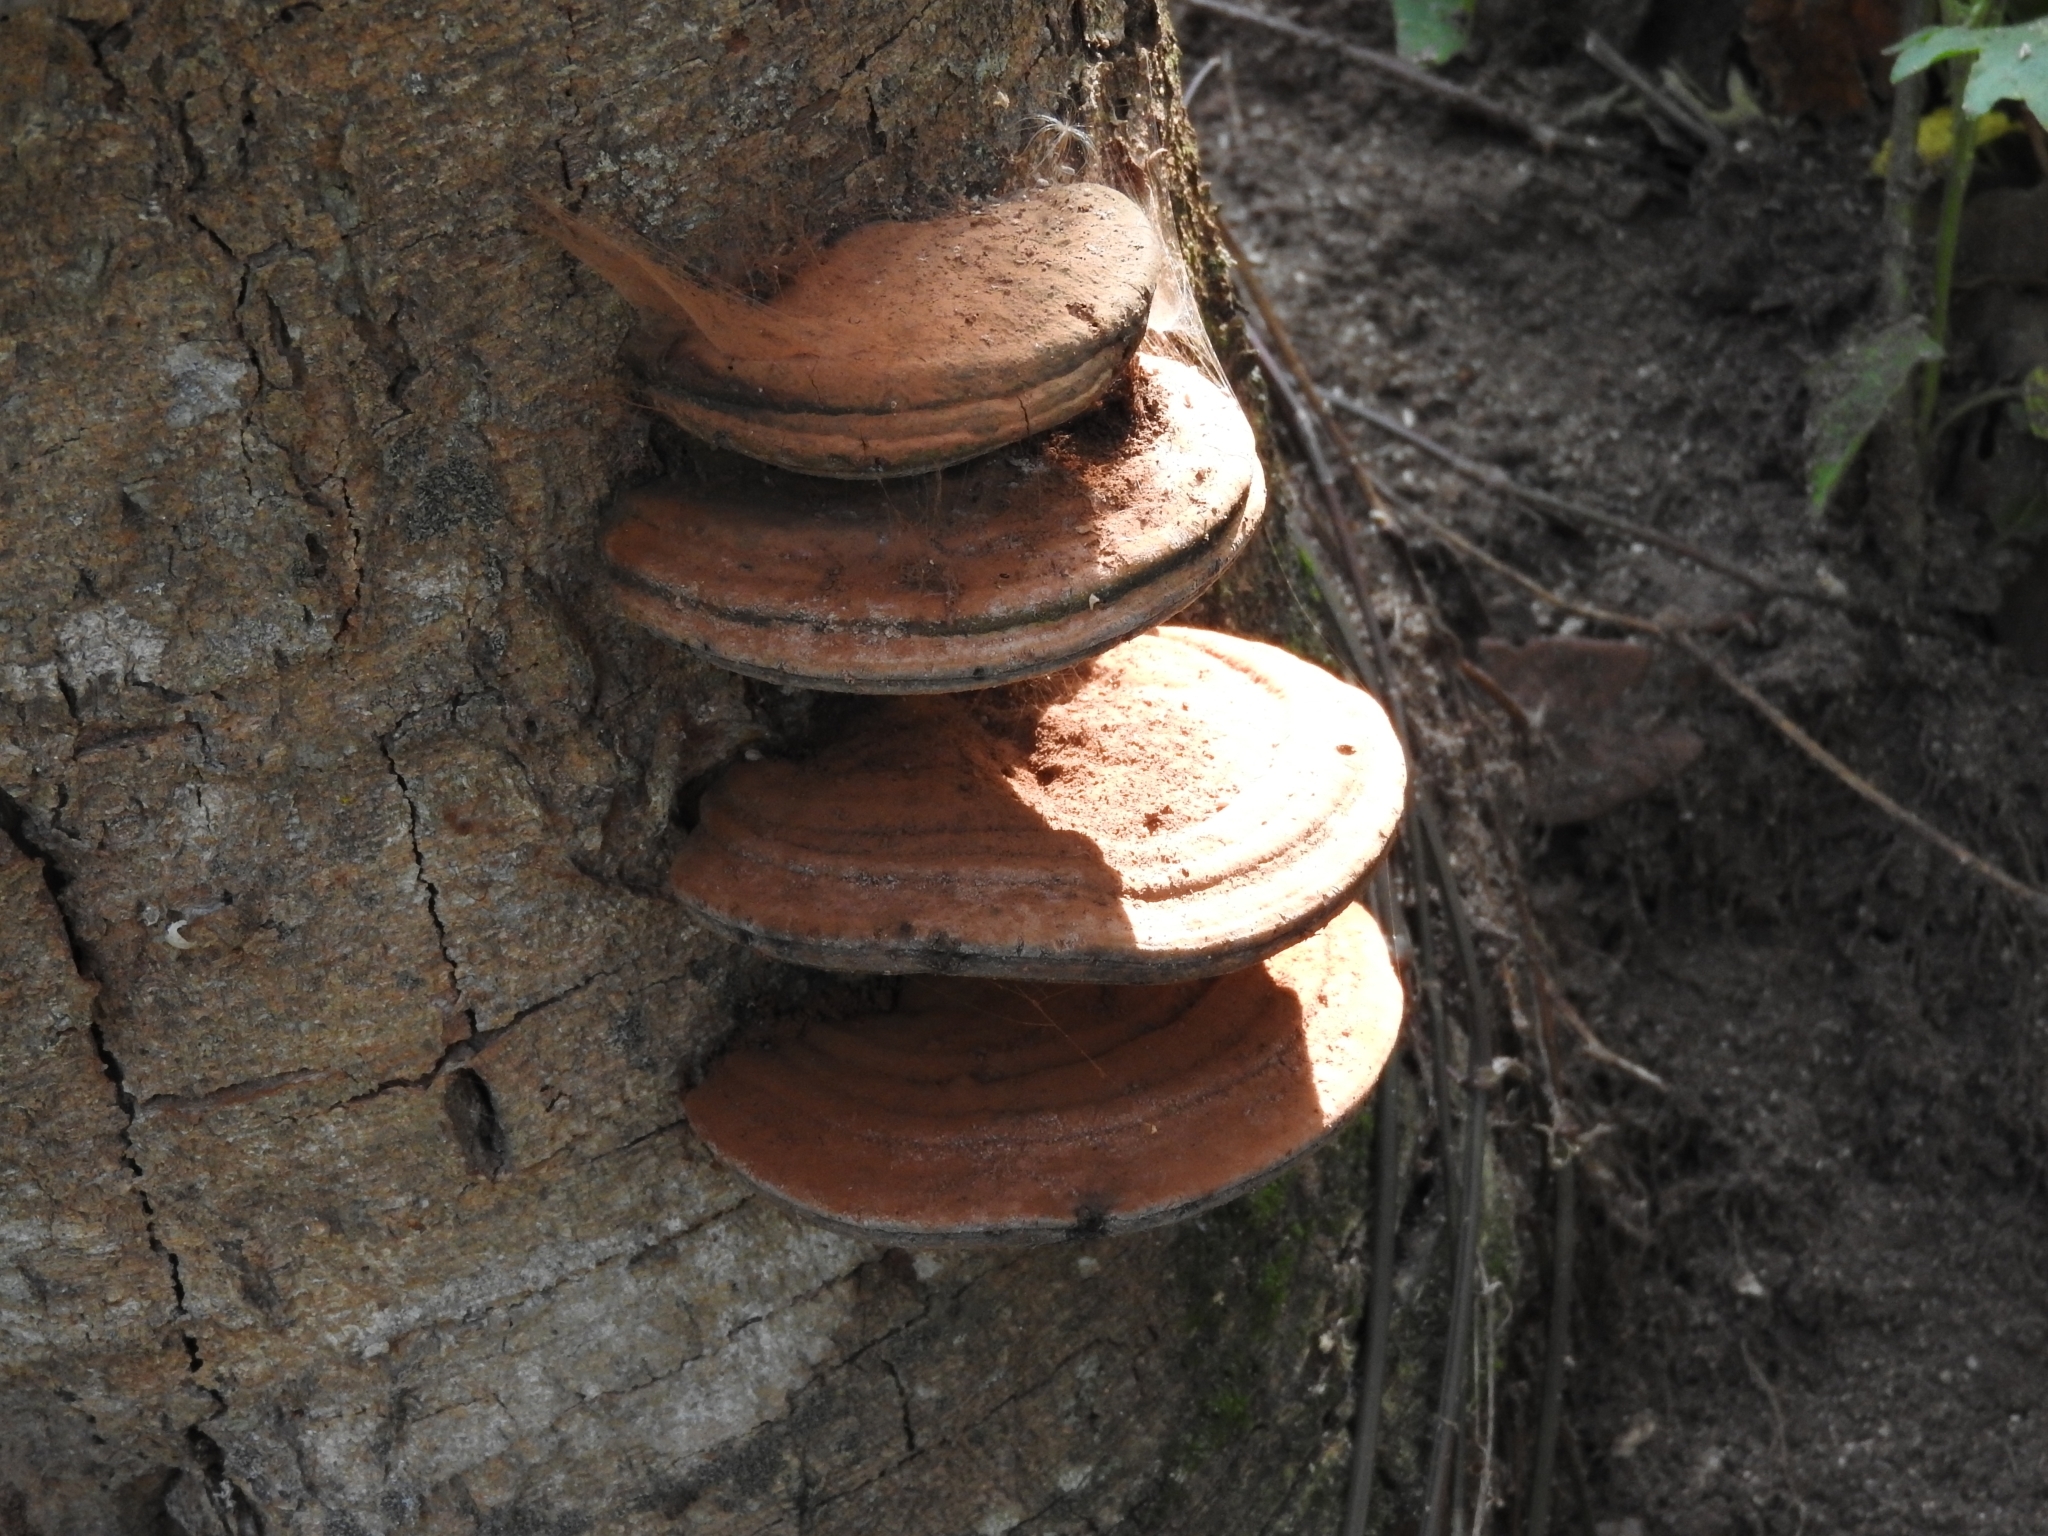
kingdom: Fungi
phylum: Basidiomycota
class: Agaricomycetes
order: Polyporales
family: Polyporaceae
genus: Ganoderma
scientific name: Ganoderma applanatum
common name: Artist's bracket
